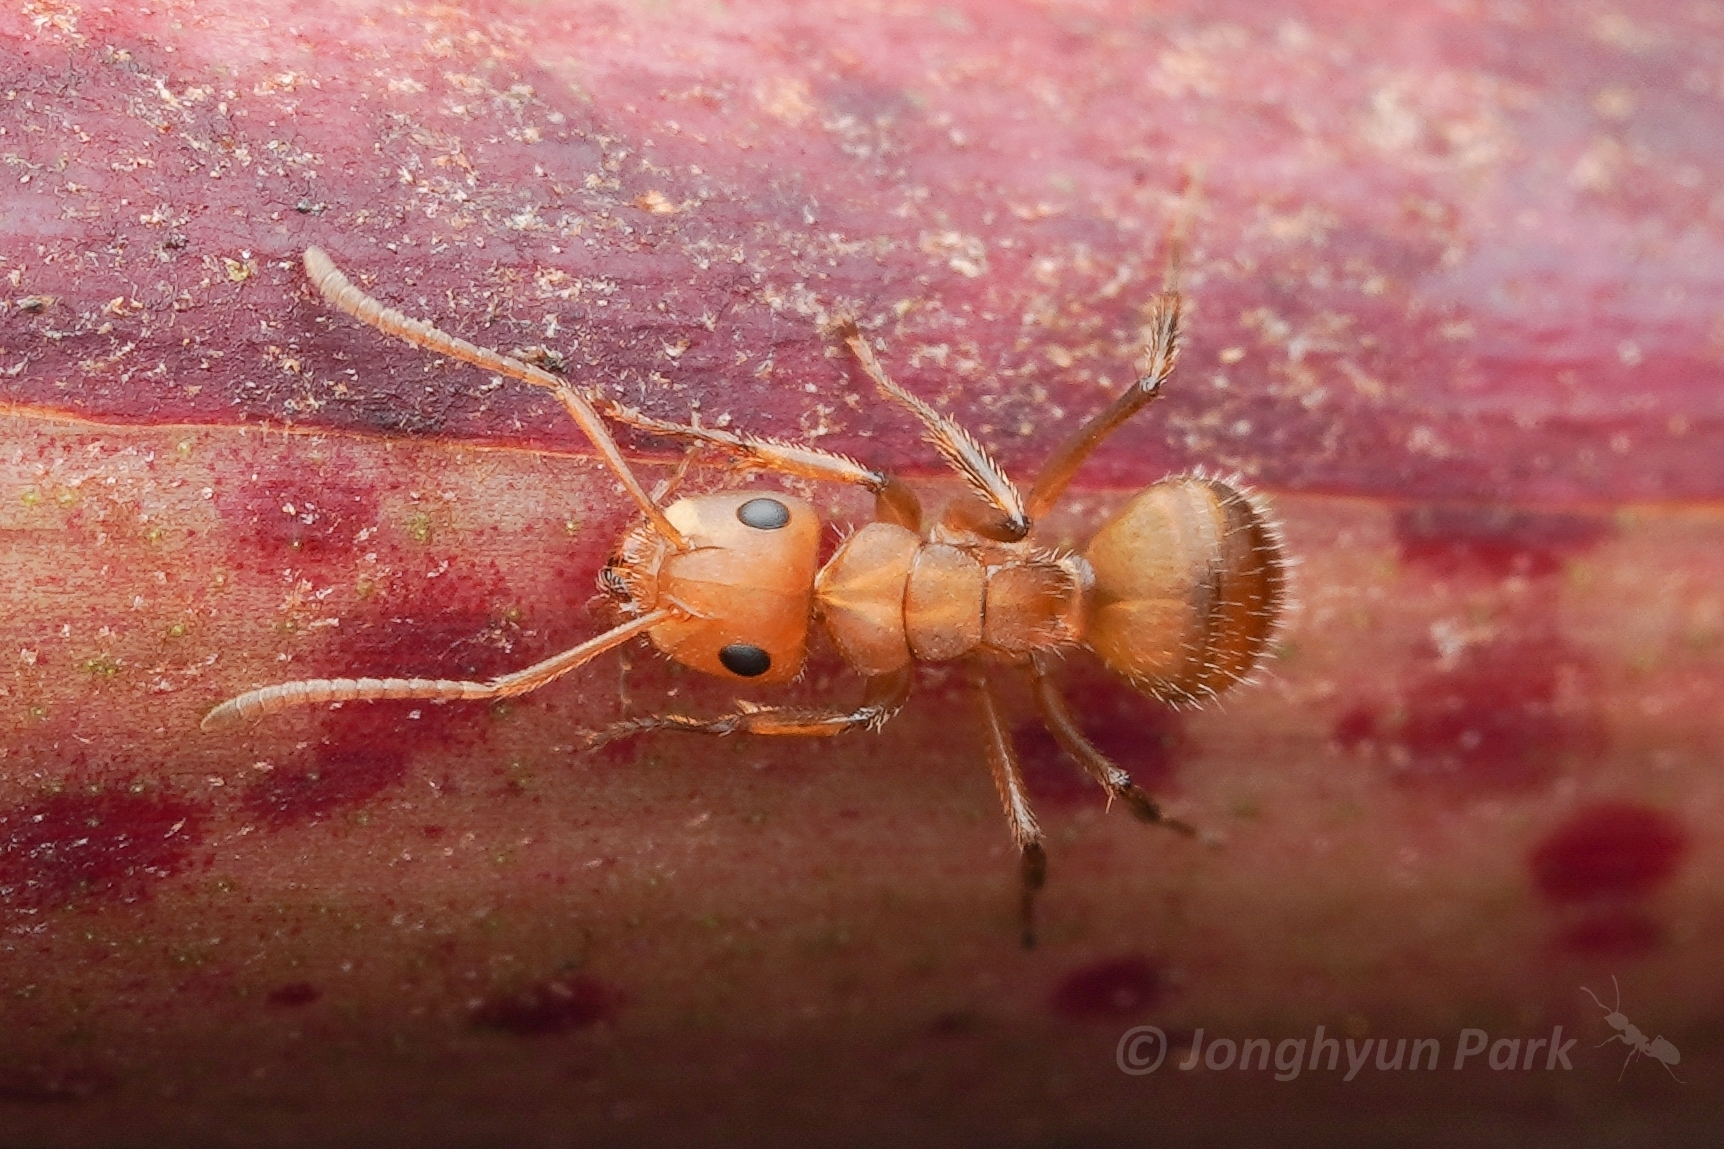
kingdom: Animalia
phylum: Arthropoda
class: Insecta
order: Hymenoptera
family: Formicidae
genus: Camponotus
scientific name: Camponotus latangulus
